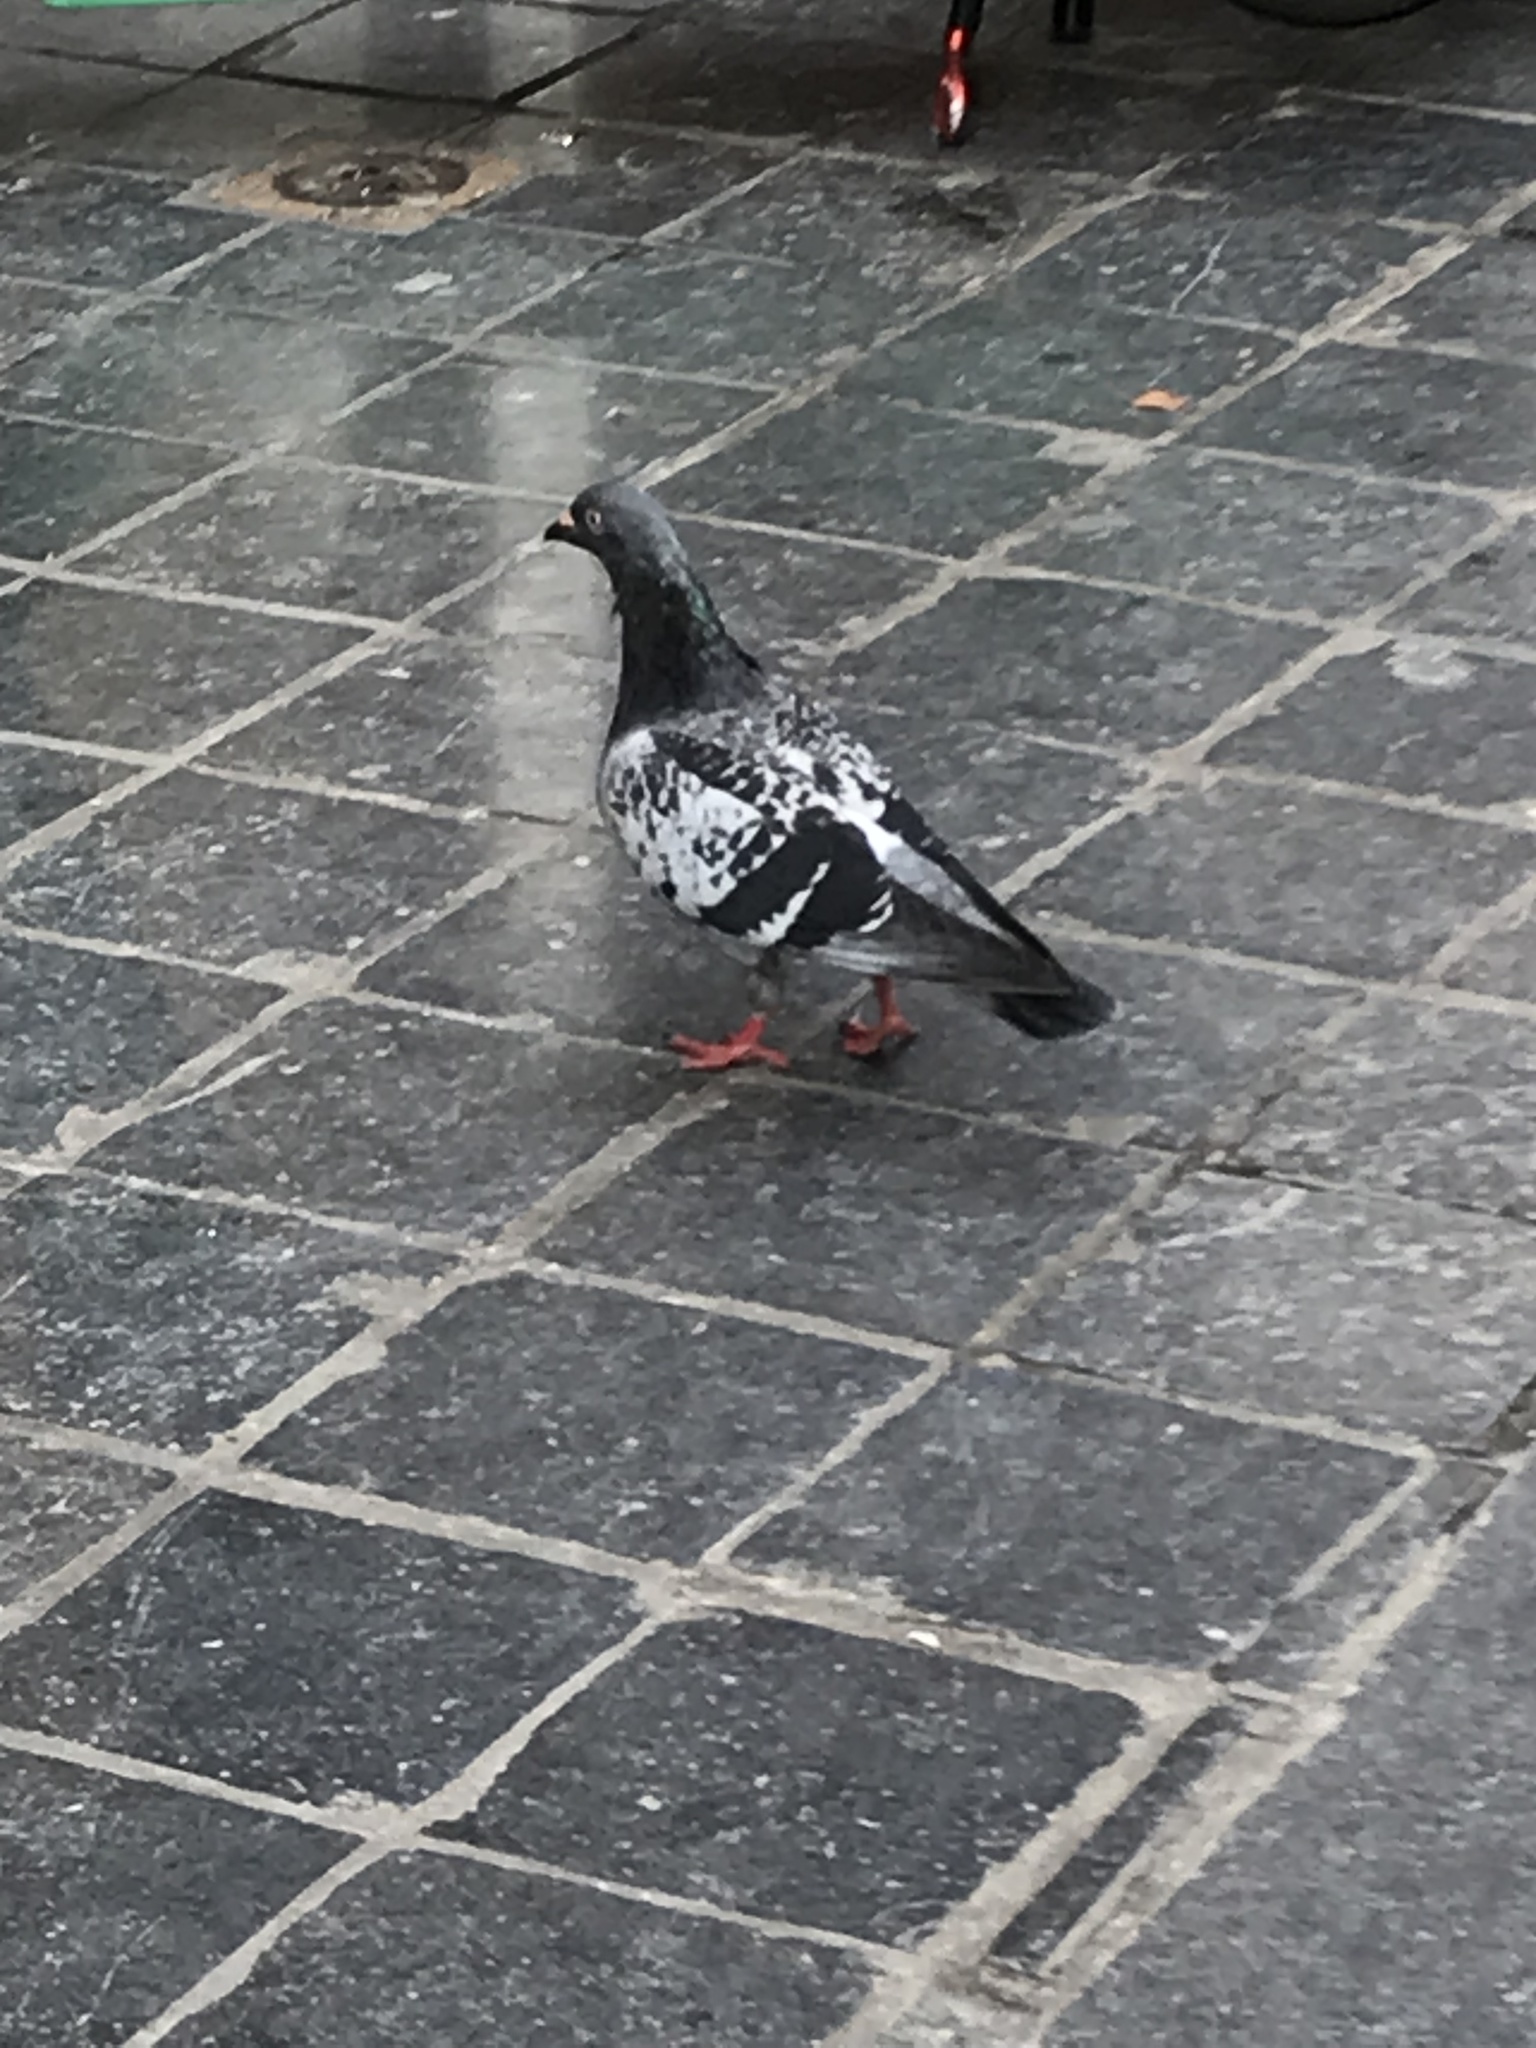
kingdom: Animalia
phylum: Chordata
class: Aves
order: Columbiformes
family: Columbidae
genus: Columba
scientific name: Columba livia
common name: Rock pigeon
